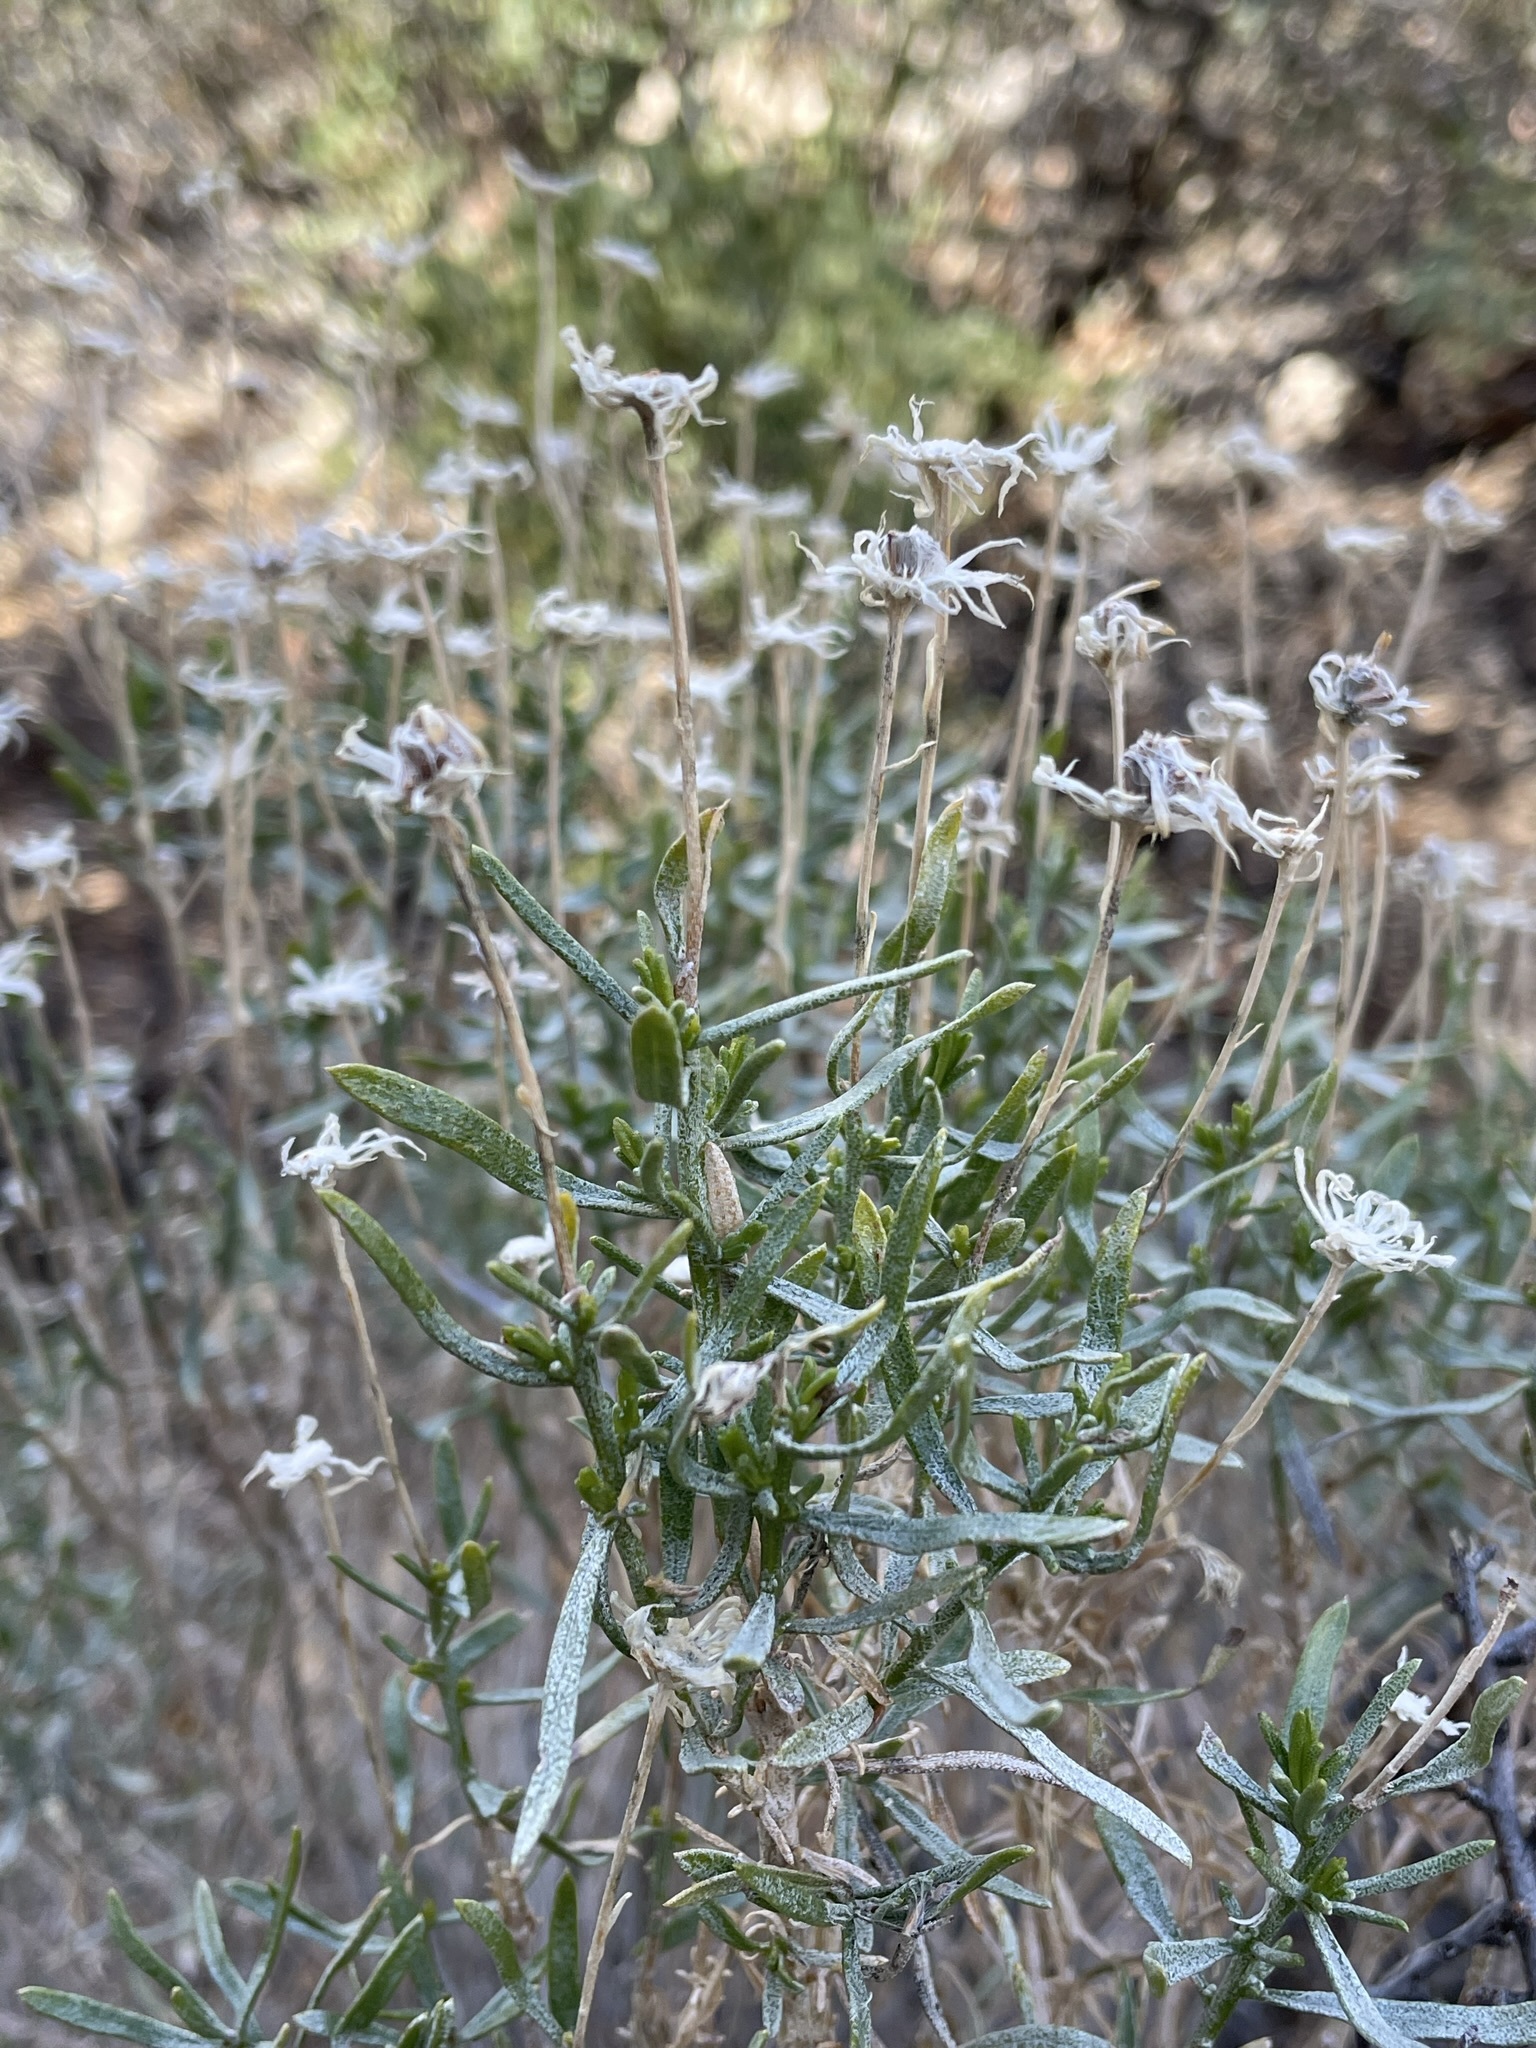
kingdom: Plantae
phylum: Tracheophyta
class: Magnoliopsida
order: Asterales
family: Asteraceae
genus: Ericameria
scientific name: Ericameria linearifolia
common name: Interior goldenbush
